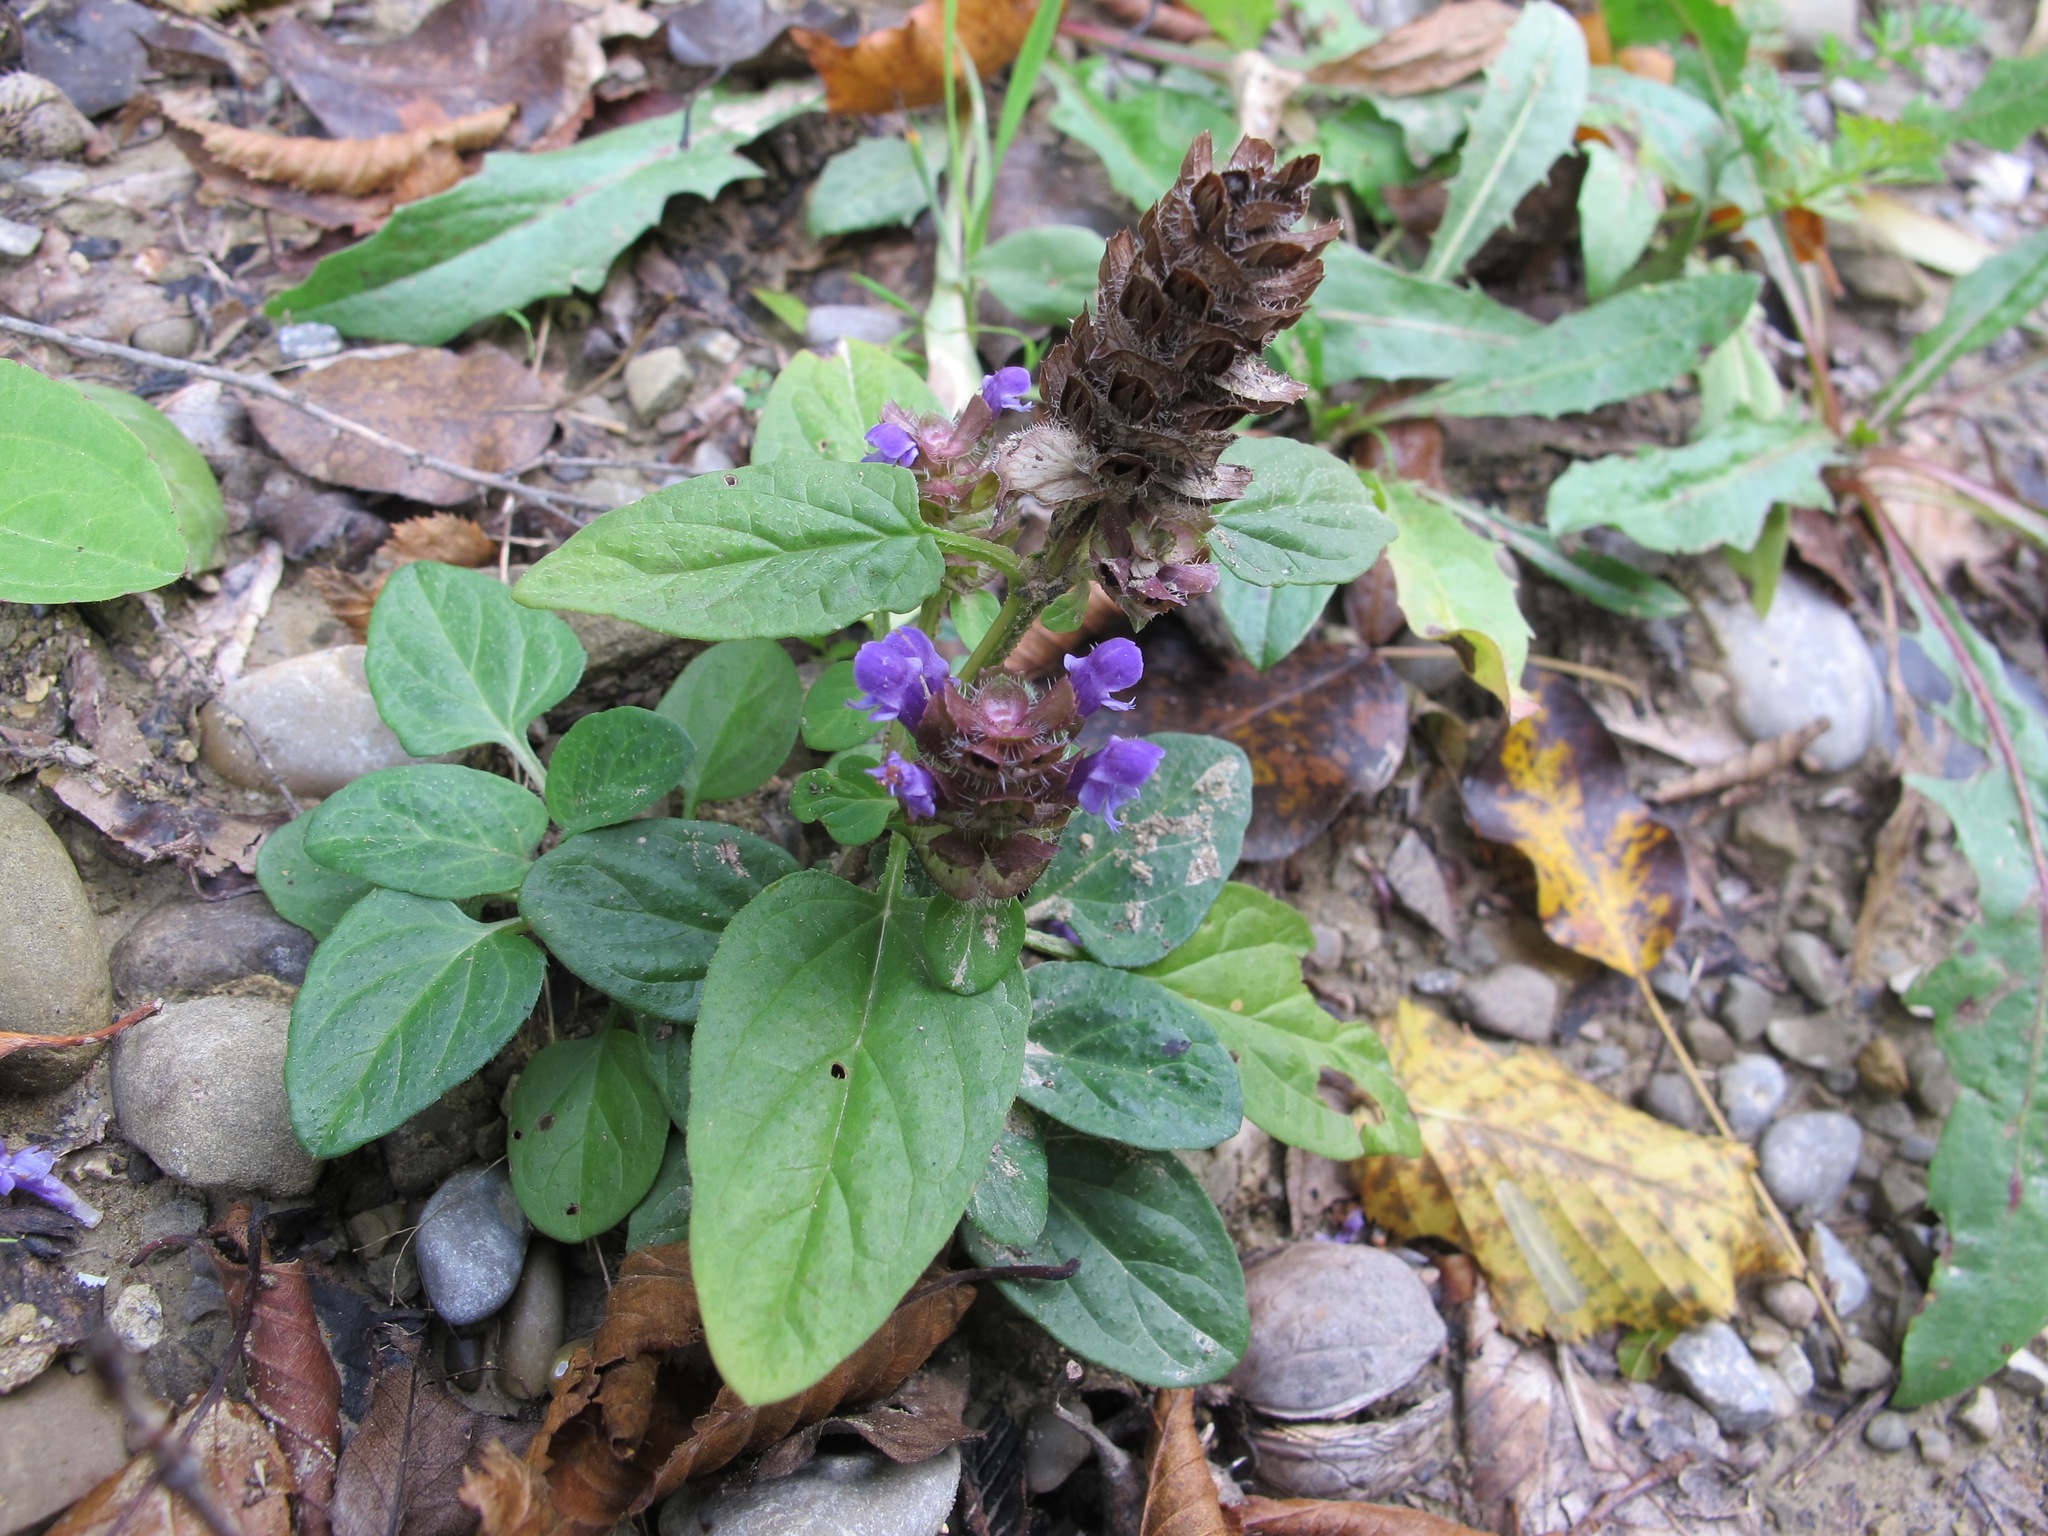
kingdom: Plantae
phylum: Tracheophyta
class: Magnoliopsida
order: Lamiales
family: Lamiaceae
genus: Prunella
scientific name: Prunella vulgaris
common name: Heal-all
